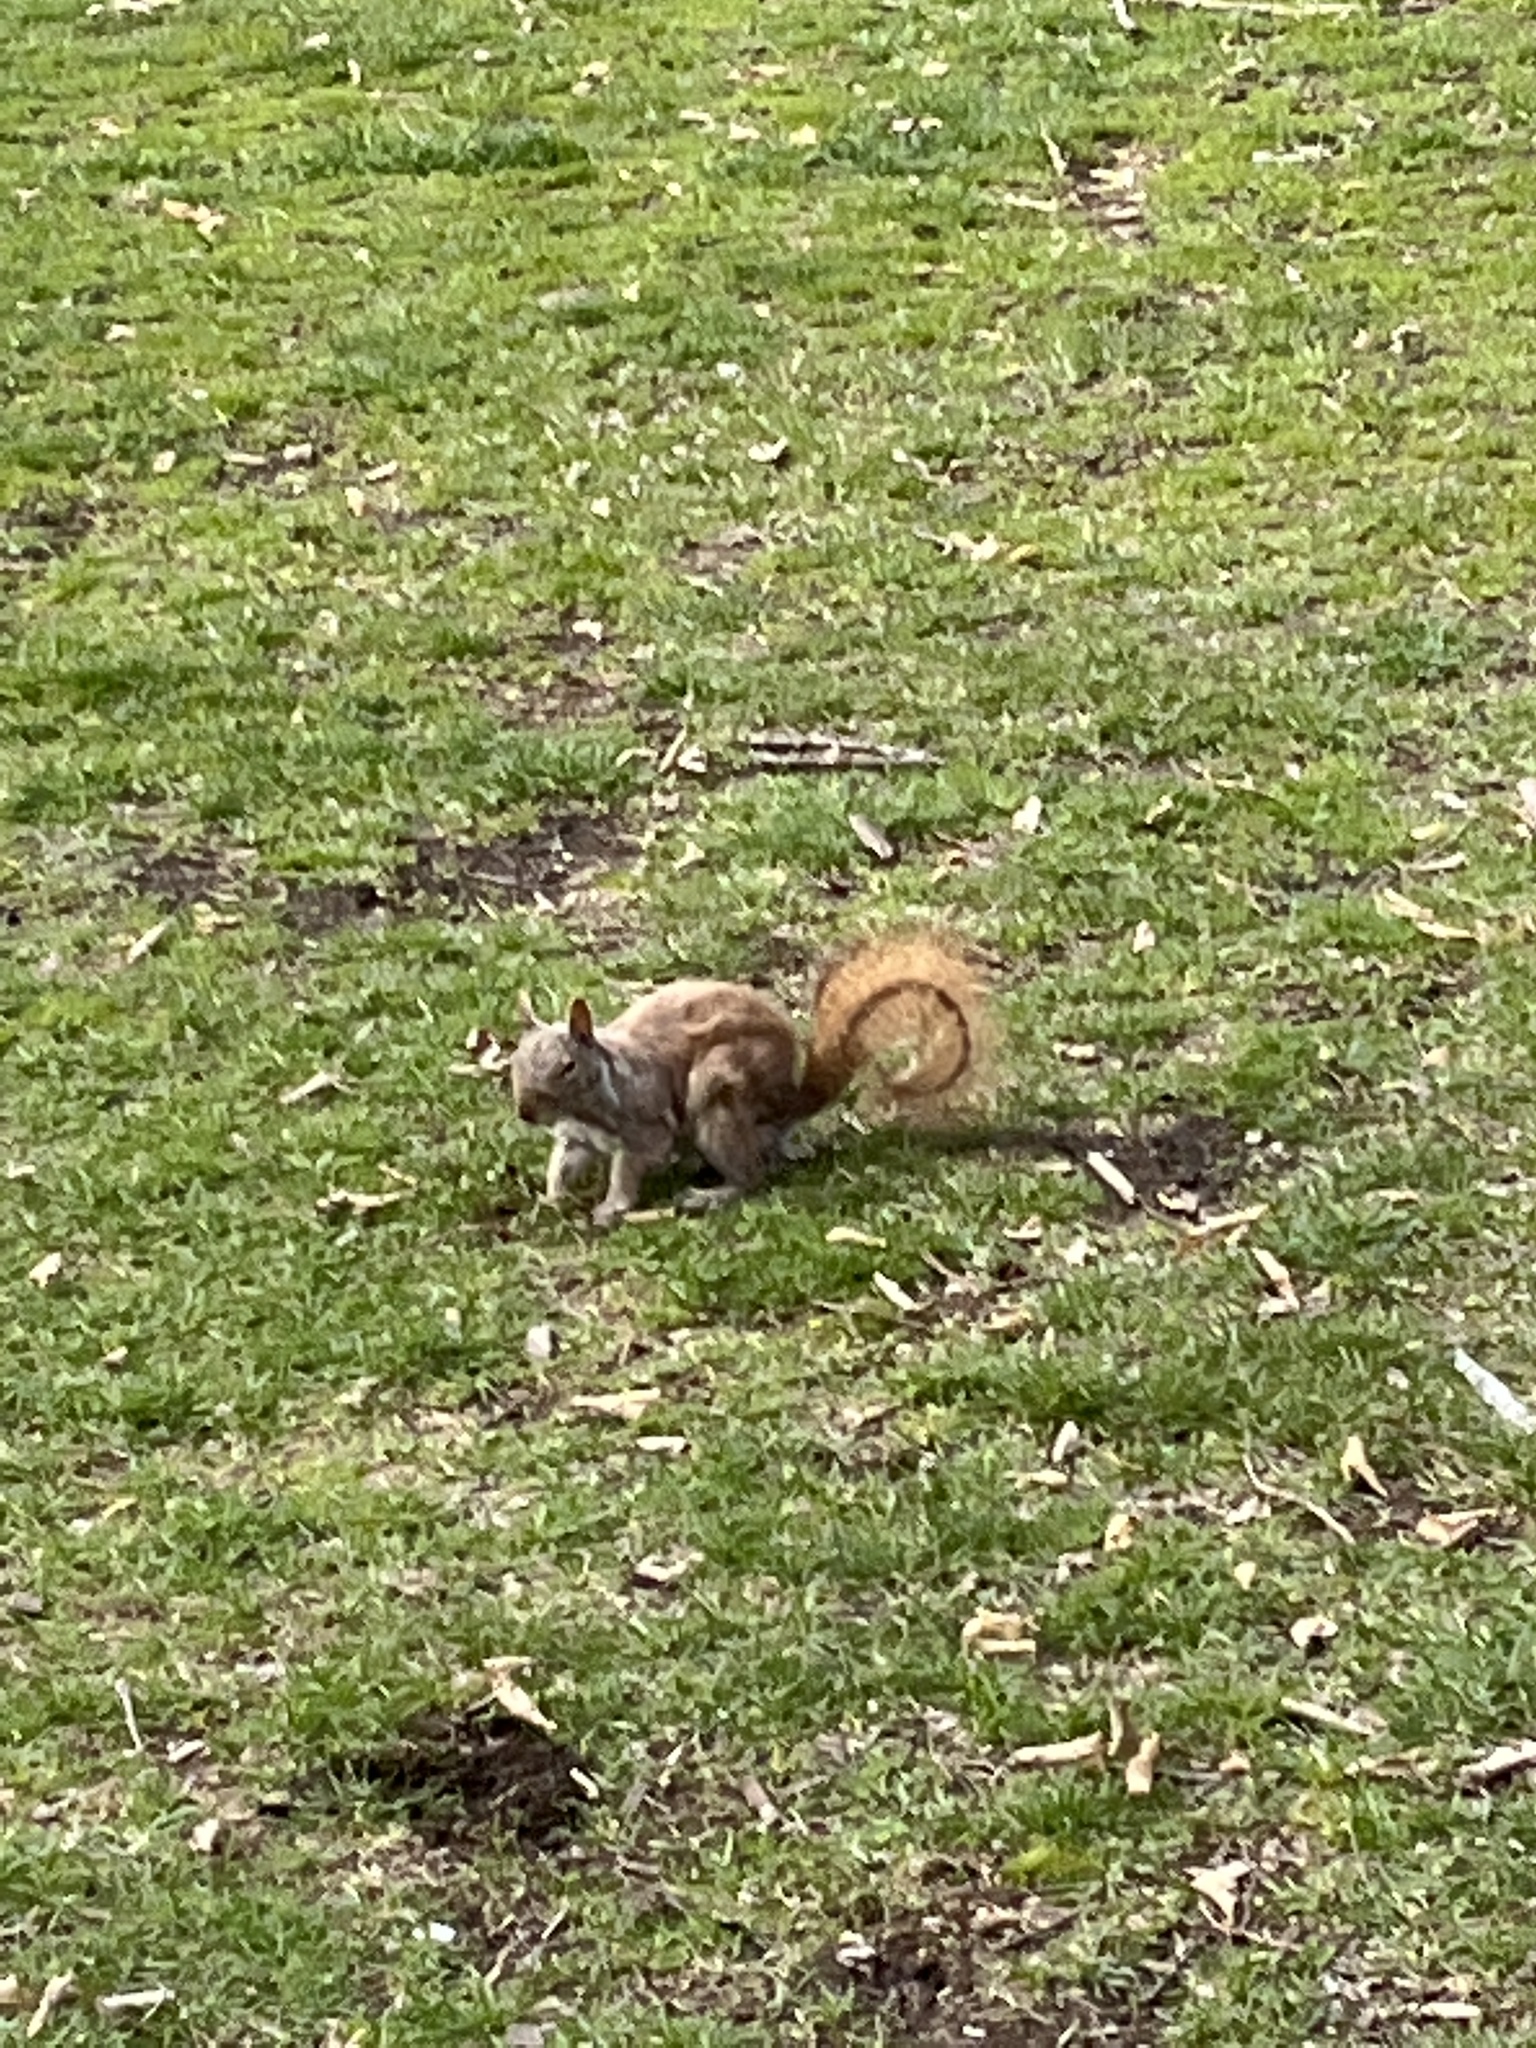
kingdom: Animalia
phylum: Chordata
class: Mammalia
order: Rodentia
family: Sciuridae
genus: Sciurus
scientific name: Sciurus carolinensis
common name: Eastern gray squirrel
